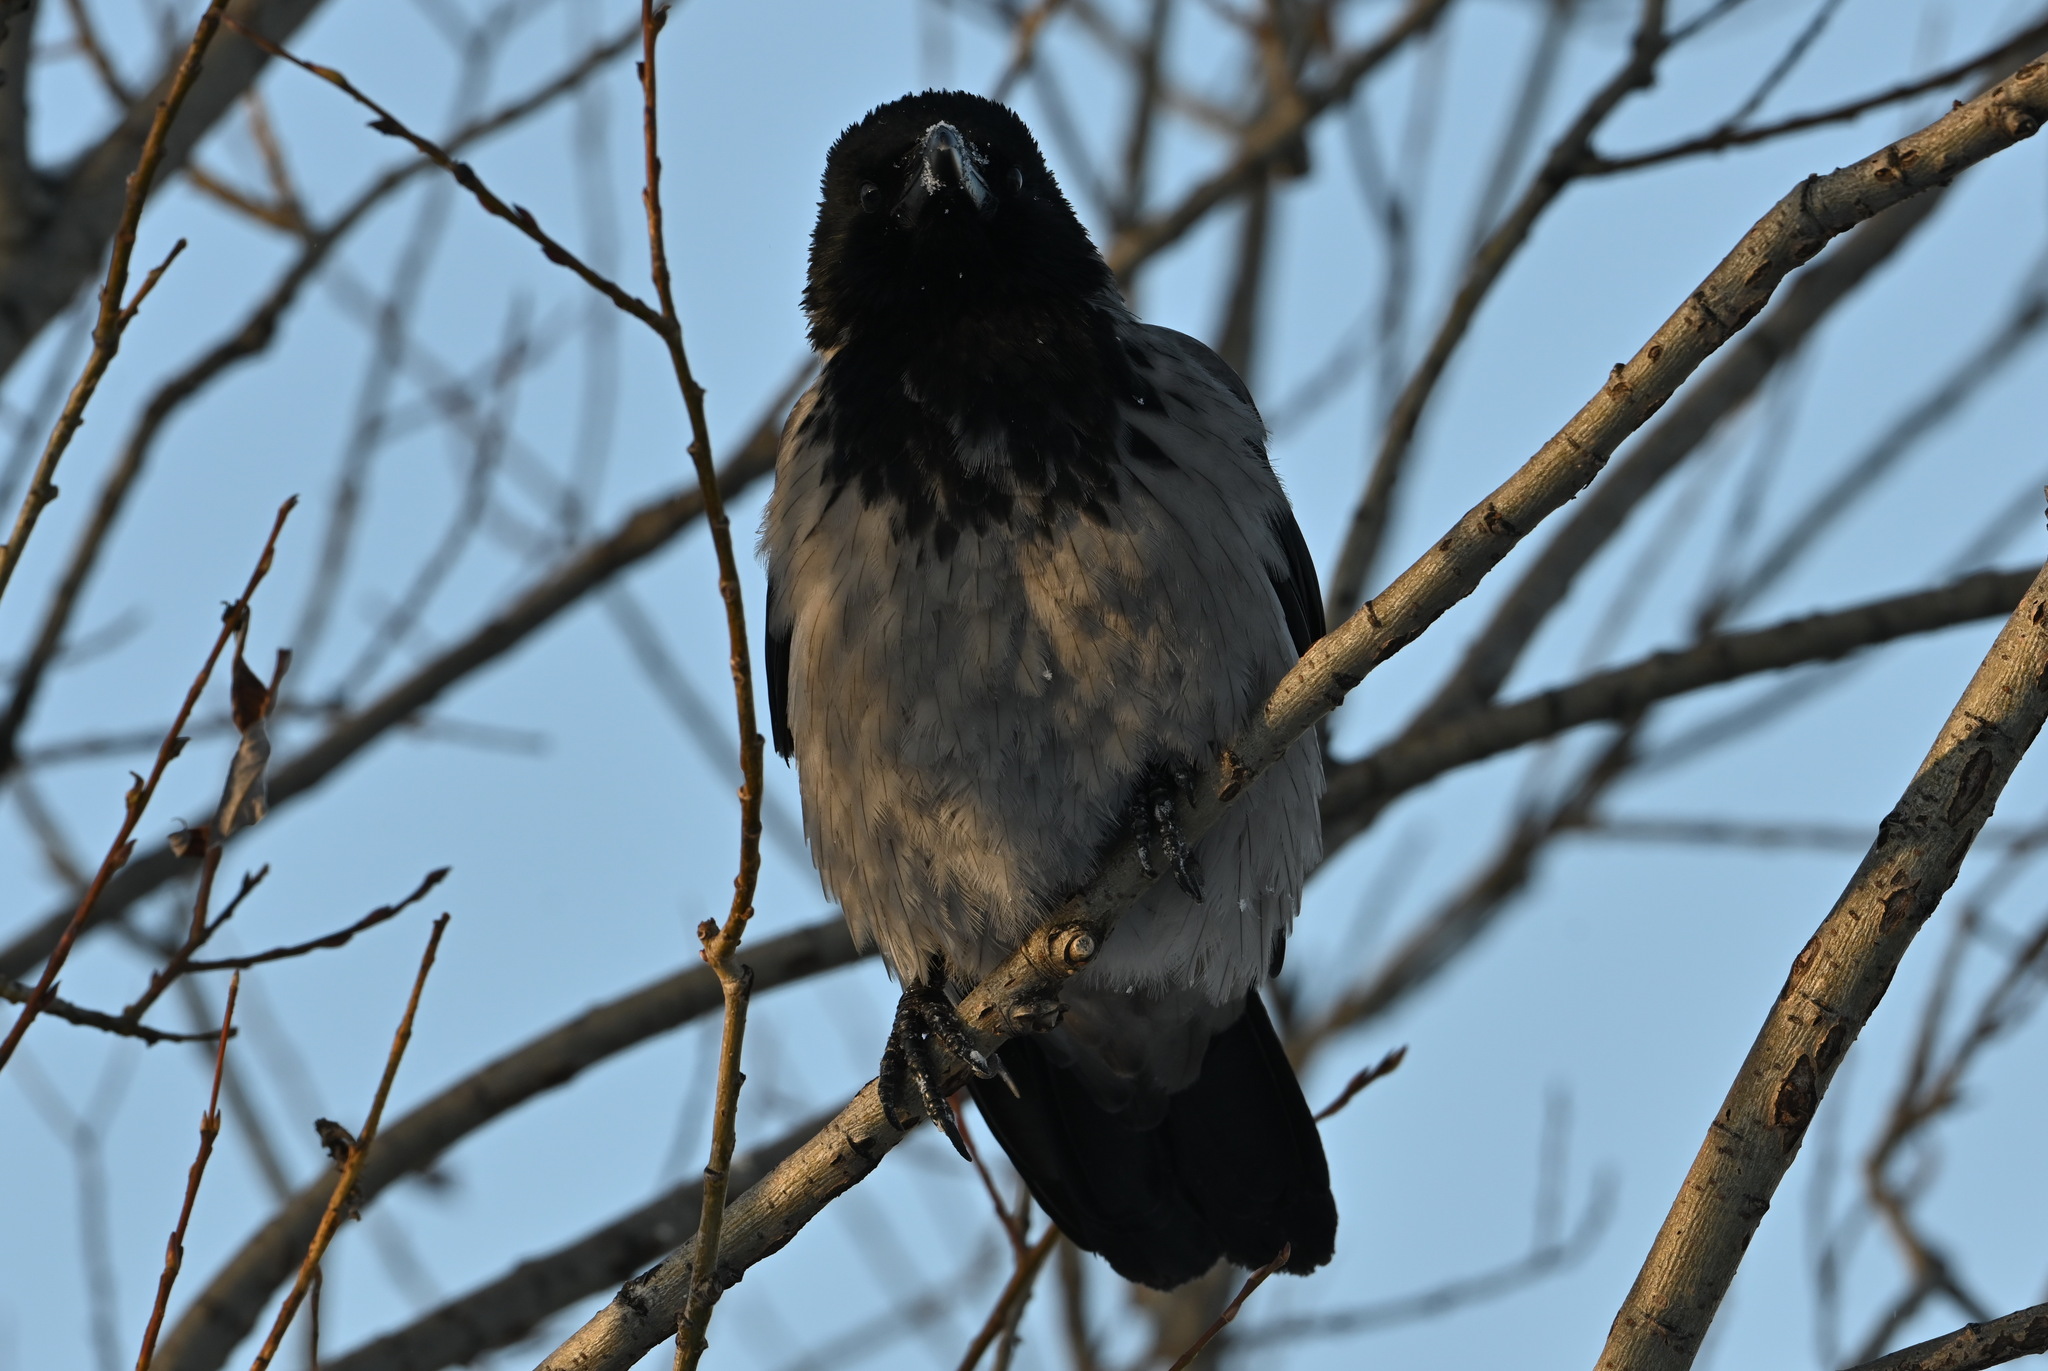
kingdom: Animalia
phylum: Chordata
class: Aves
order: Passeriformes
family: Corvidae
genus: Corvus
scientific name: Corvus cornix
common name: Hooded crow
